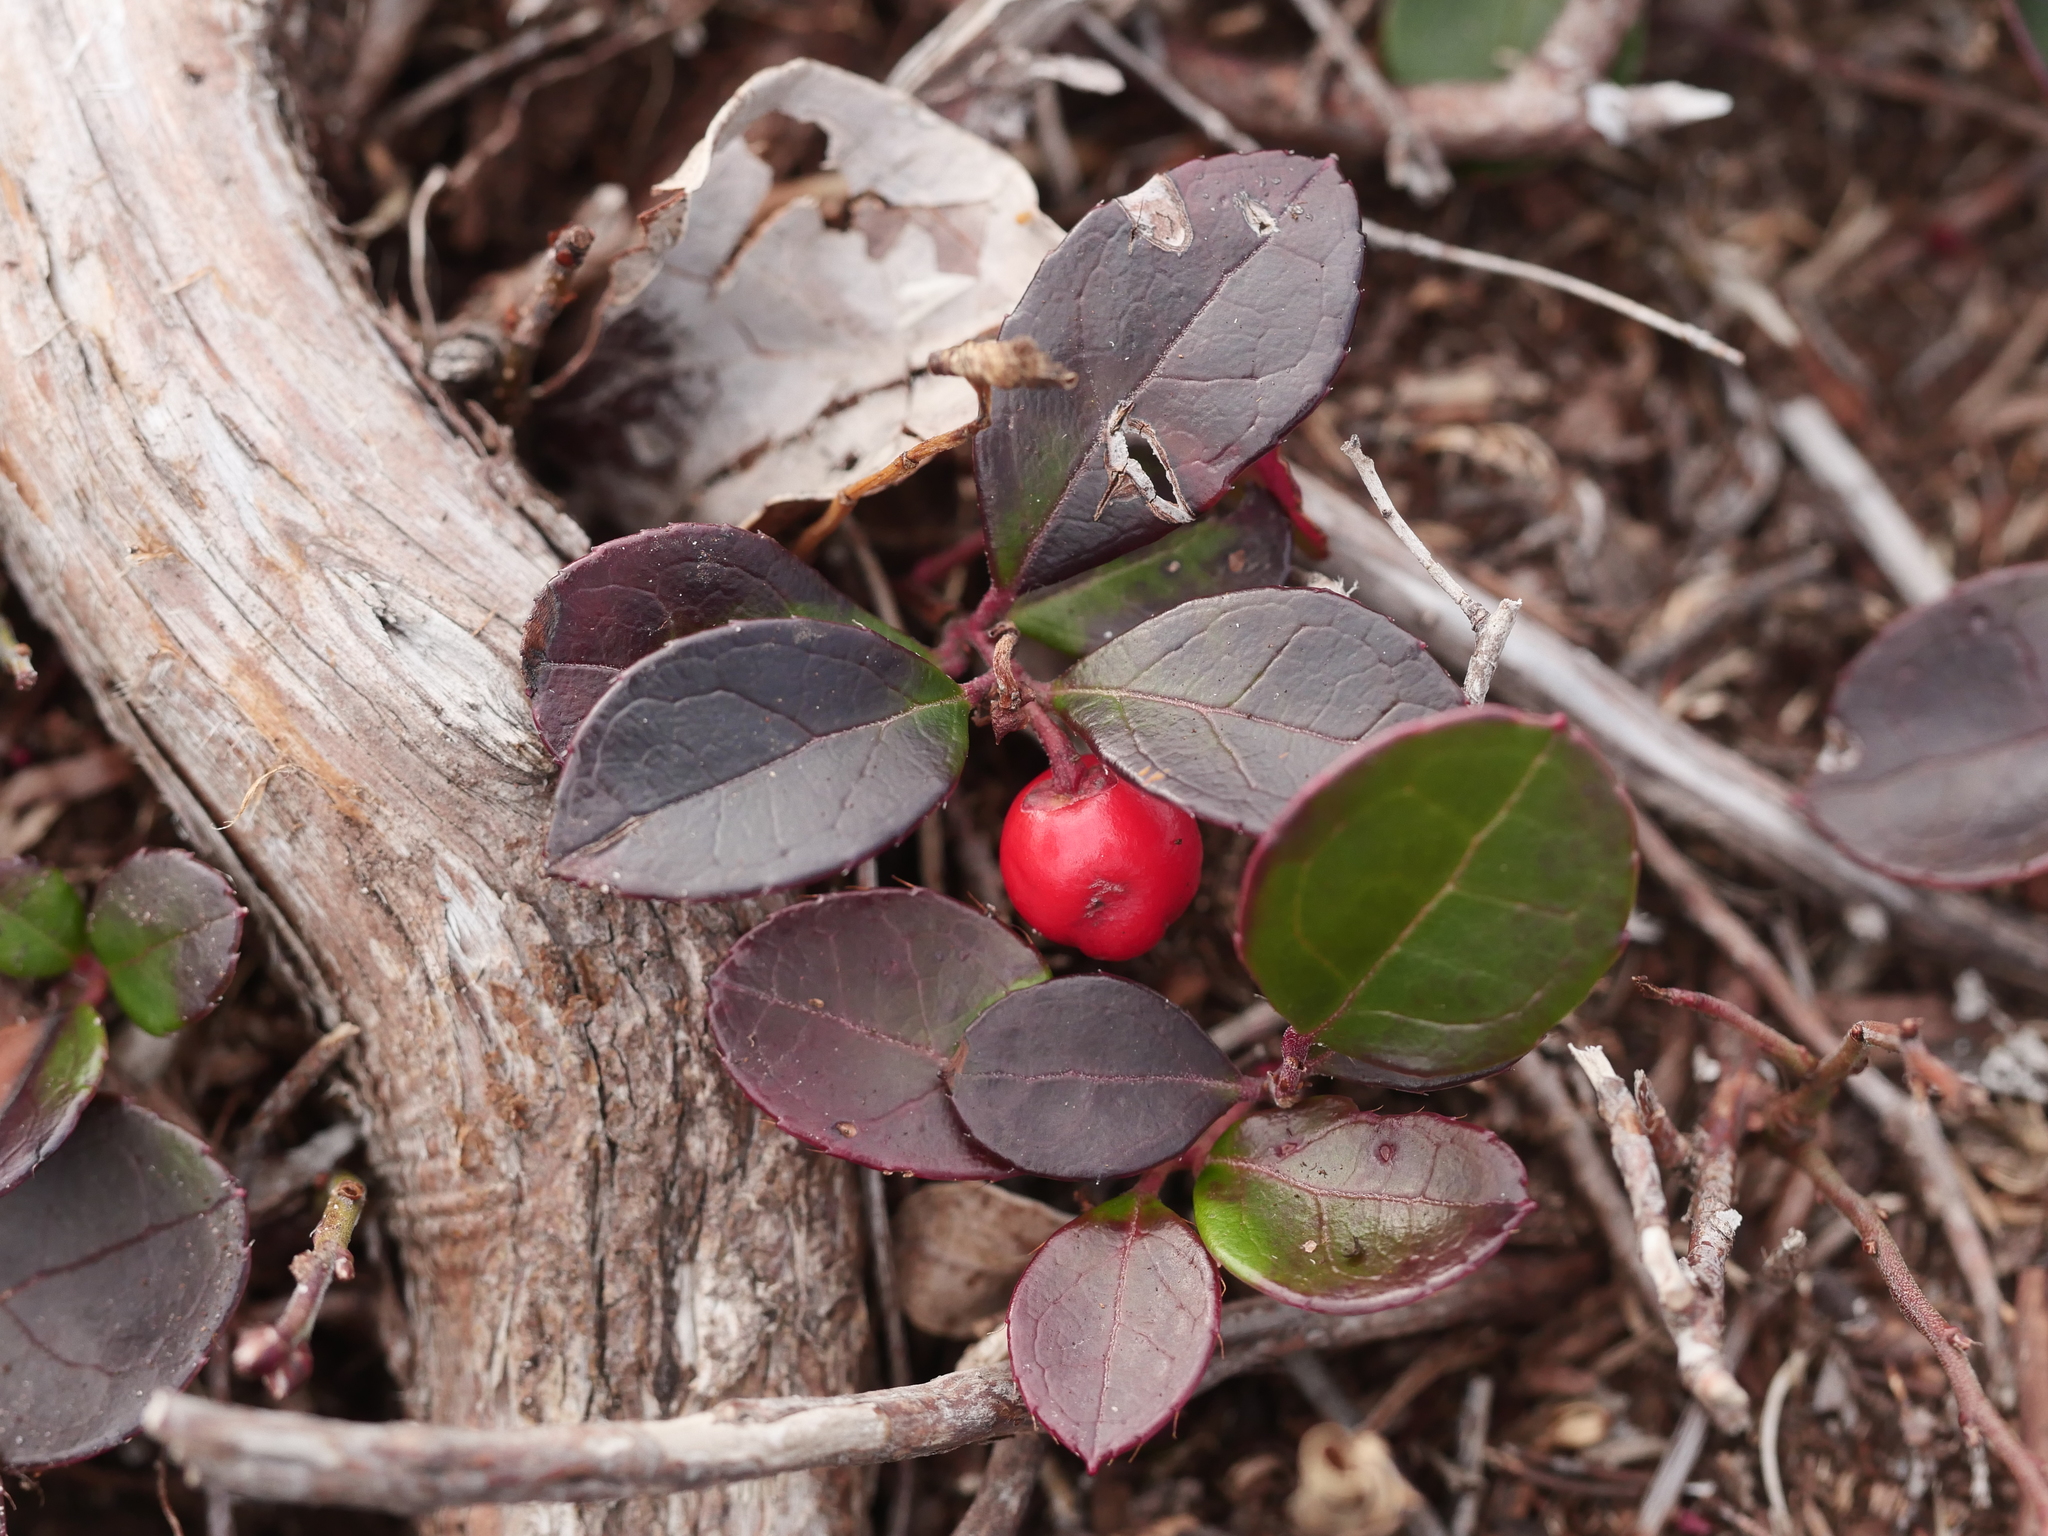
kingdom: Plantae
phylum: Tracheophyta
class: Magnoliopsida
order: Ericales
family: Ericaceae
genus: Gaultheria
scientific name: Gaultheria procumbens
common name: Checkerberry
